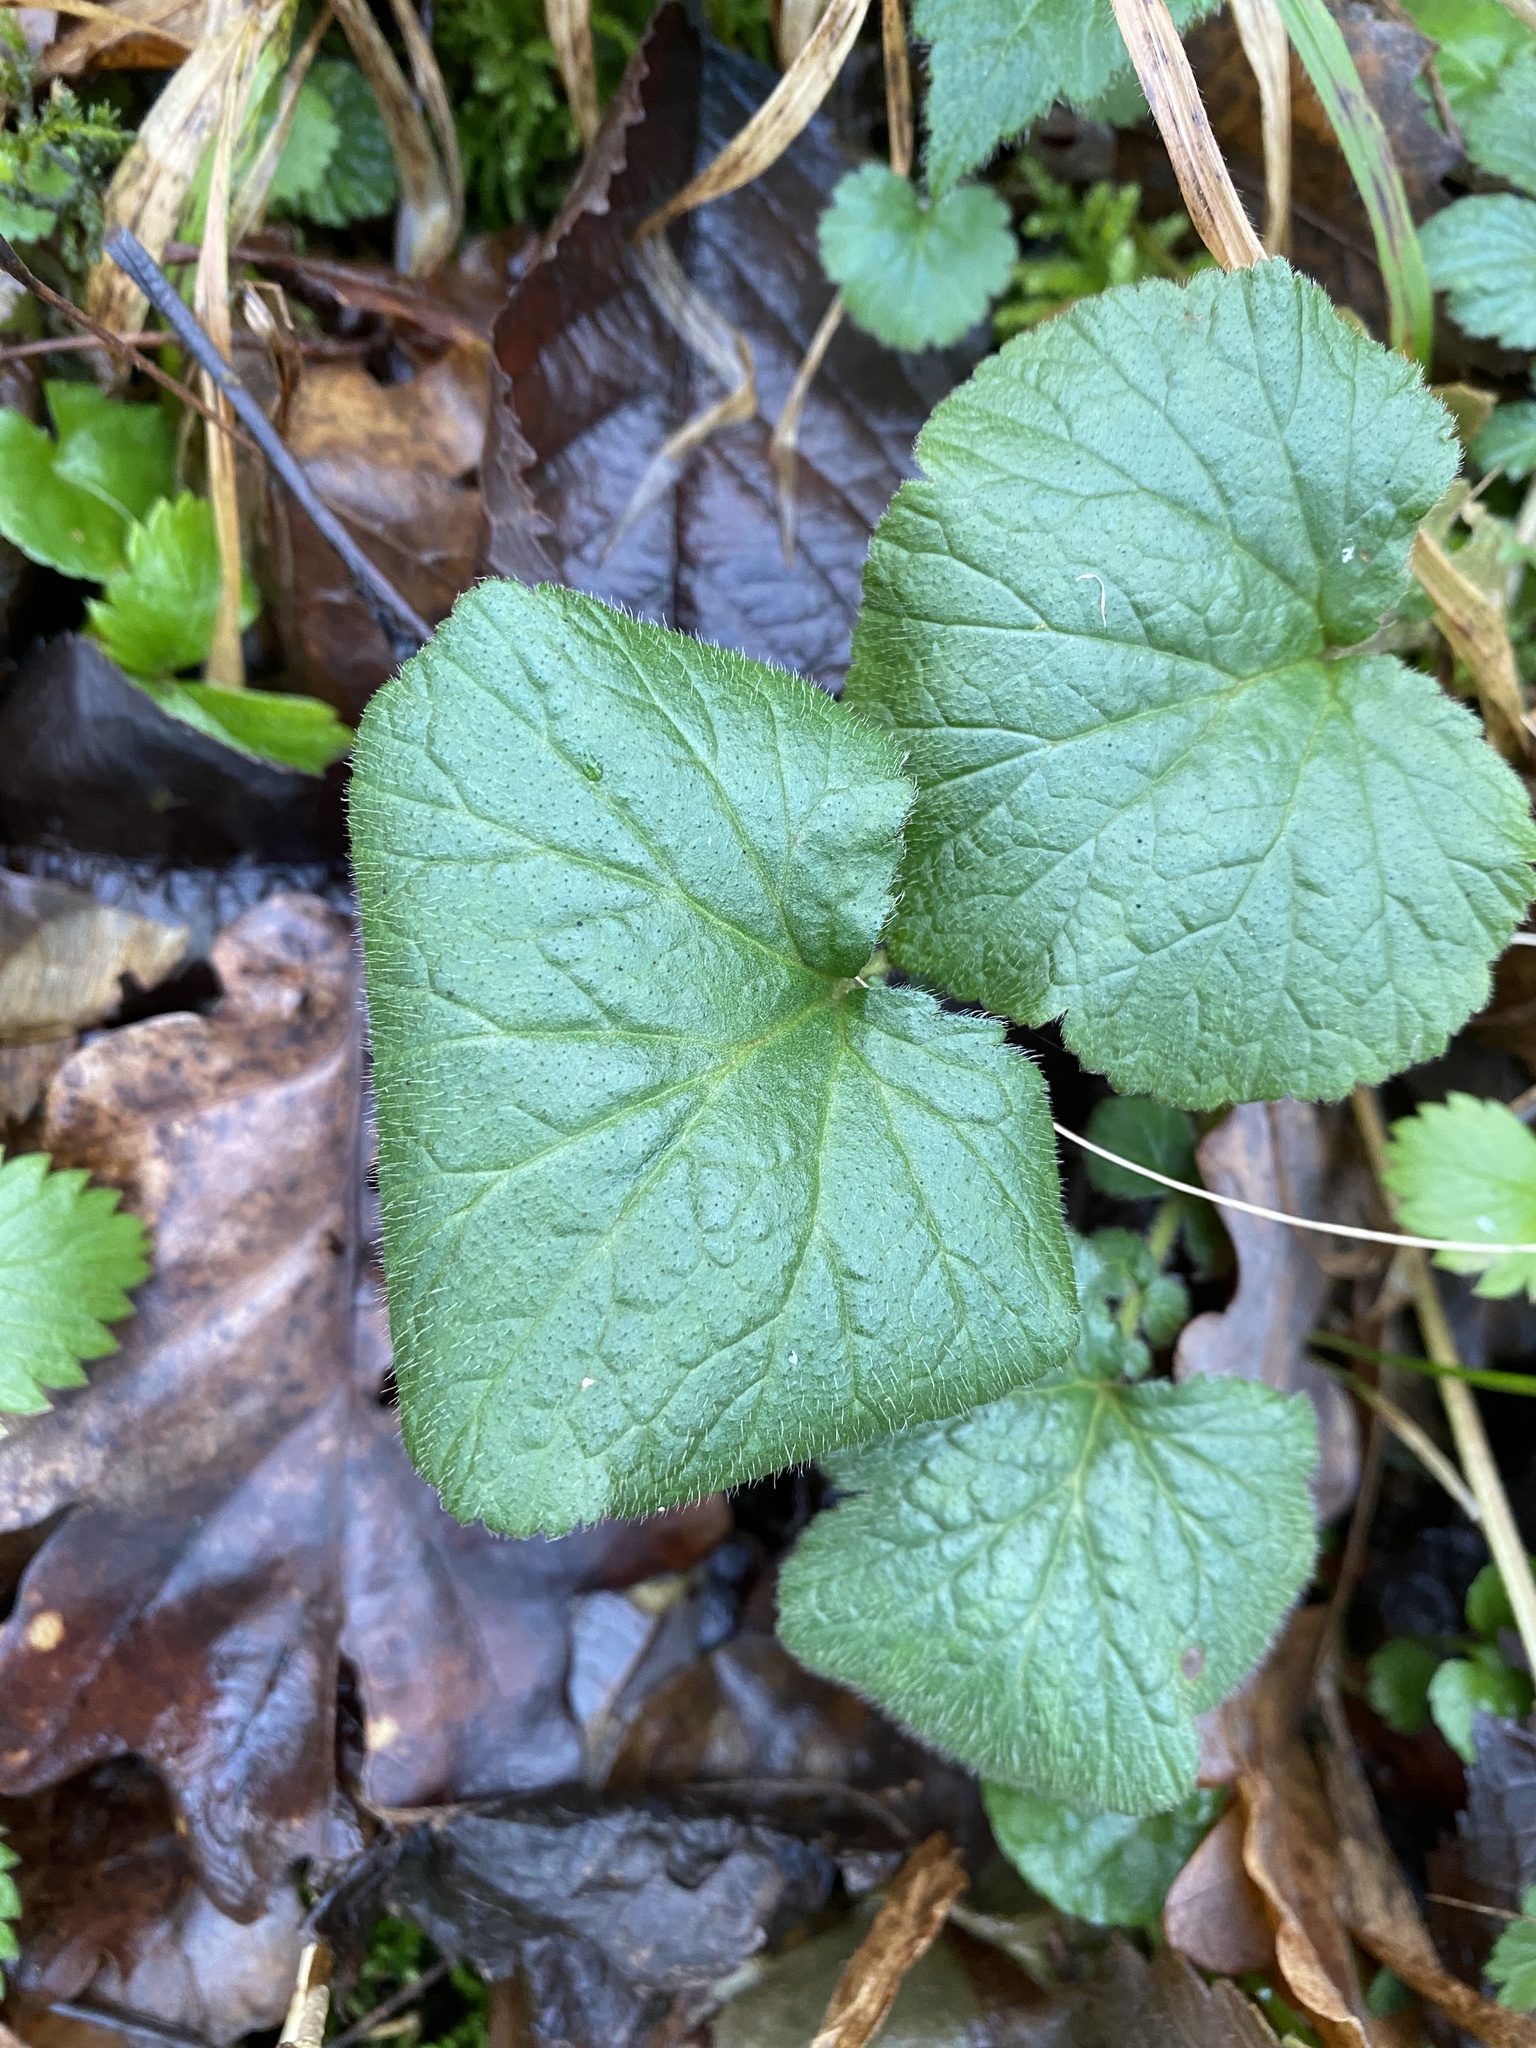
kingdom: Plantae
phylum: Tracheophyta
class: Magnoliopsida
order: Rosales
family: Rosaceae
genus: Geum
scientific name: Geum urbanum
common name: Wood avens
